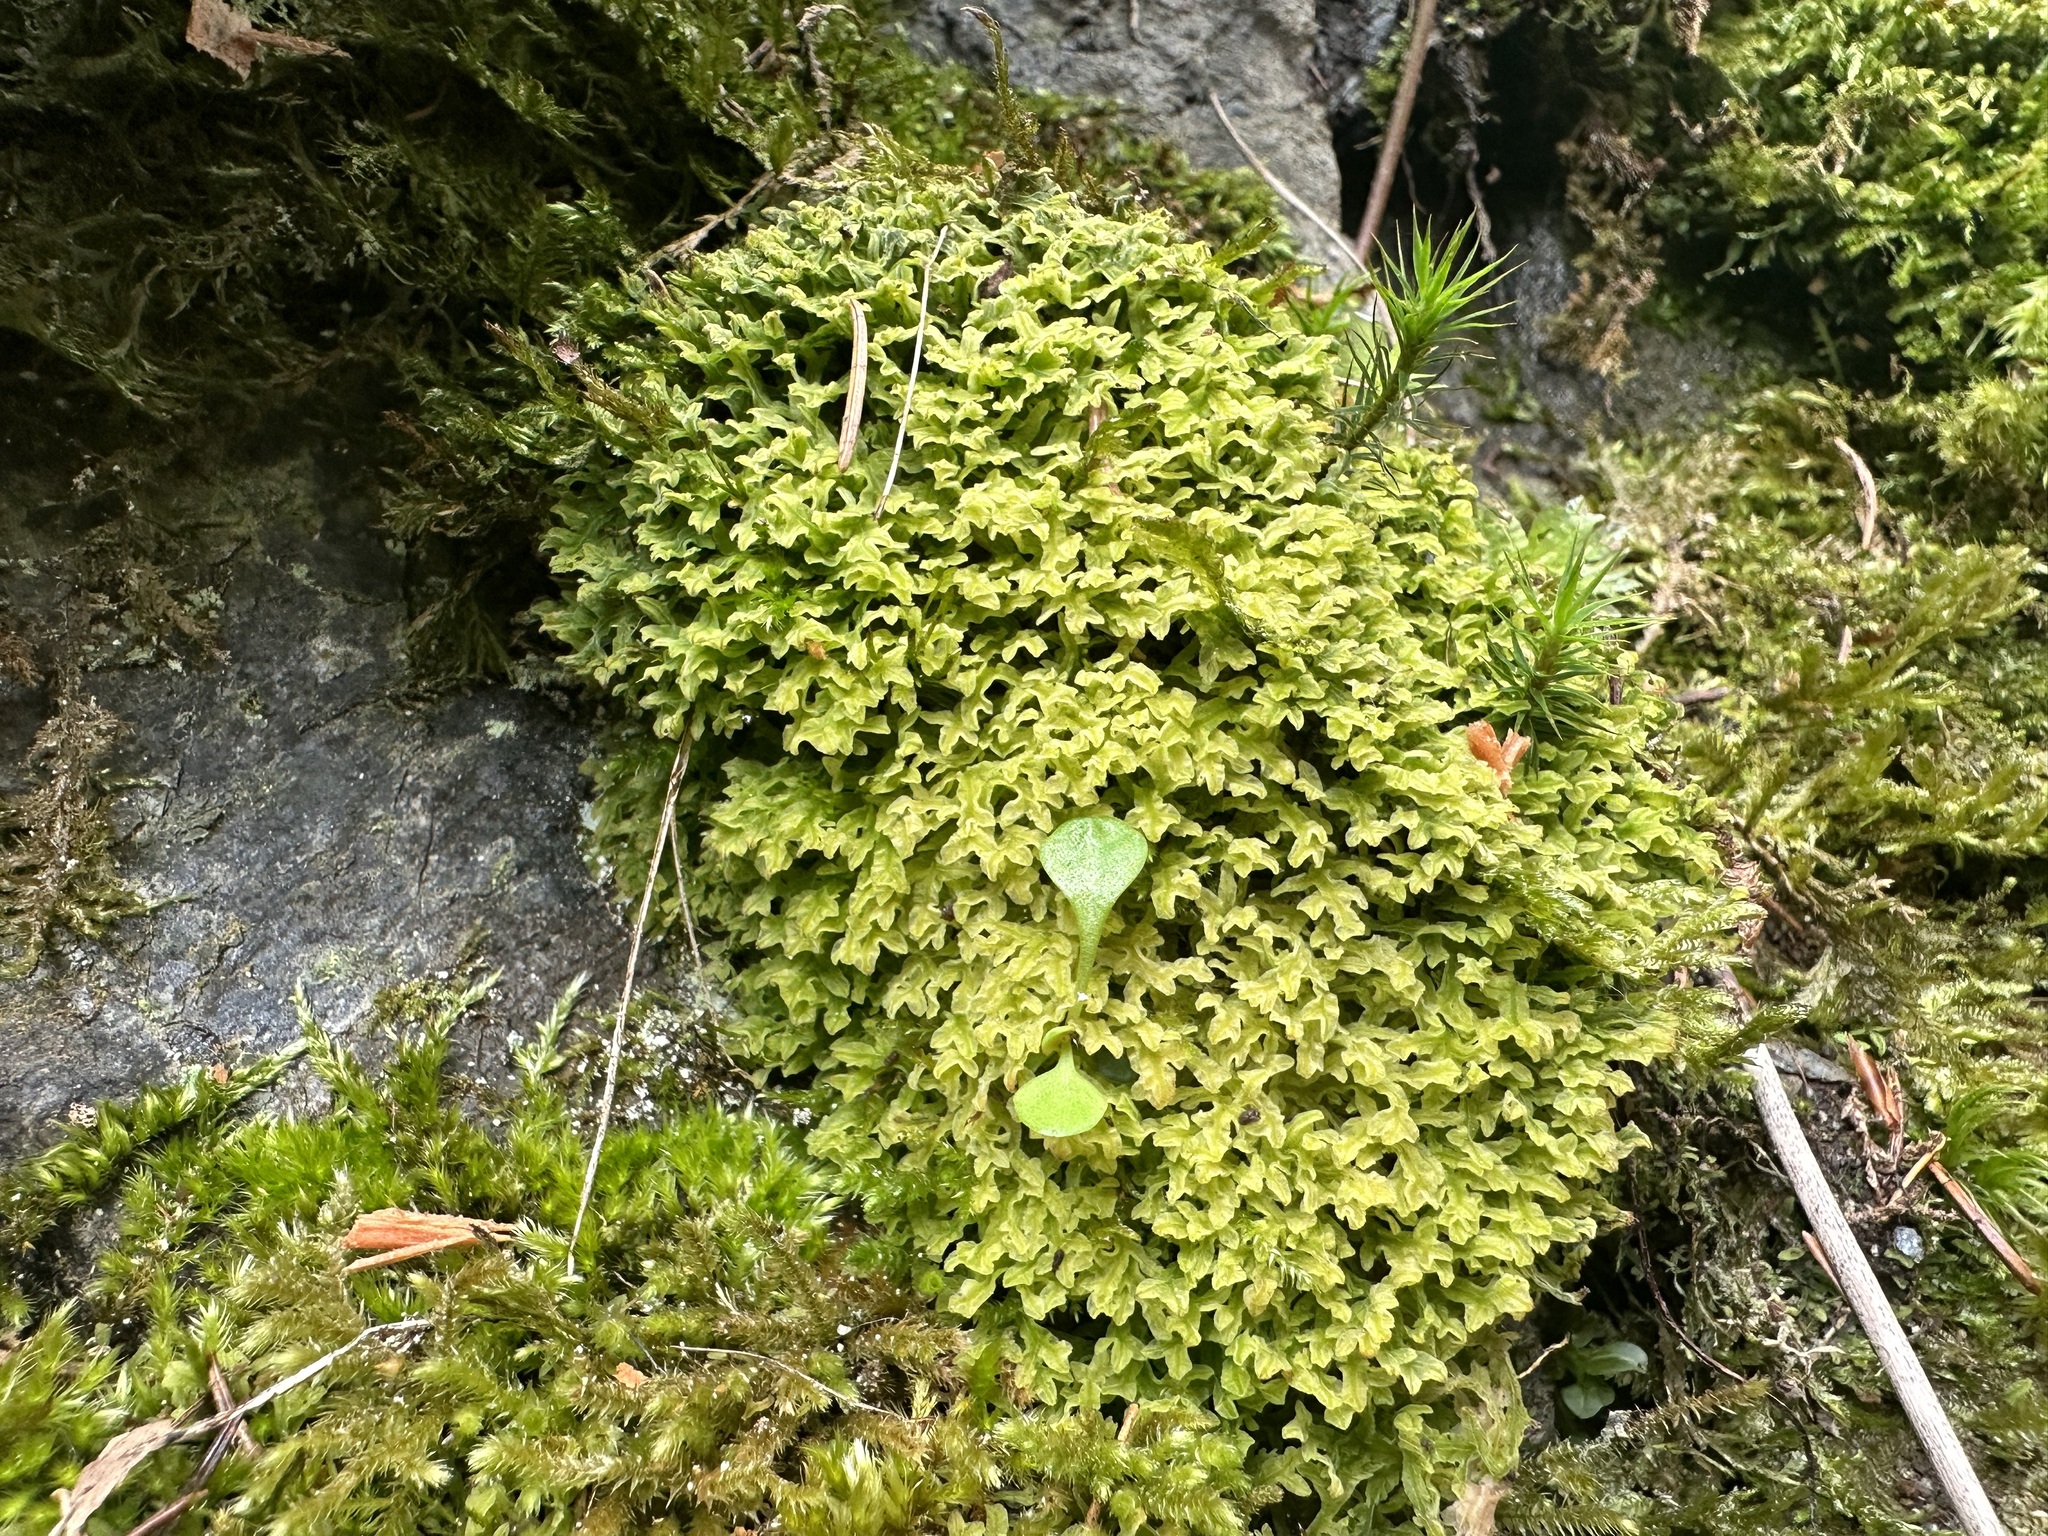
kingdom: Plantae
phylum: Marchantiophyta
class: Jungermanniopsida
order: Metzgeriales
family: Metzgeriaceae
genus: Metzgeria
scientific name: Metzgeria pubescens
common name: Downy veilwort
